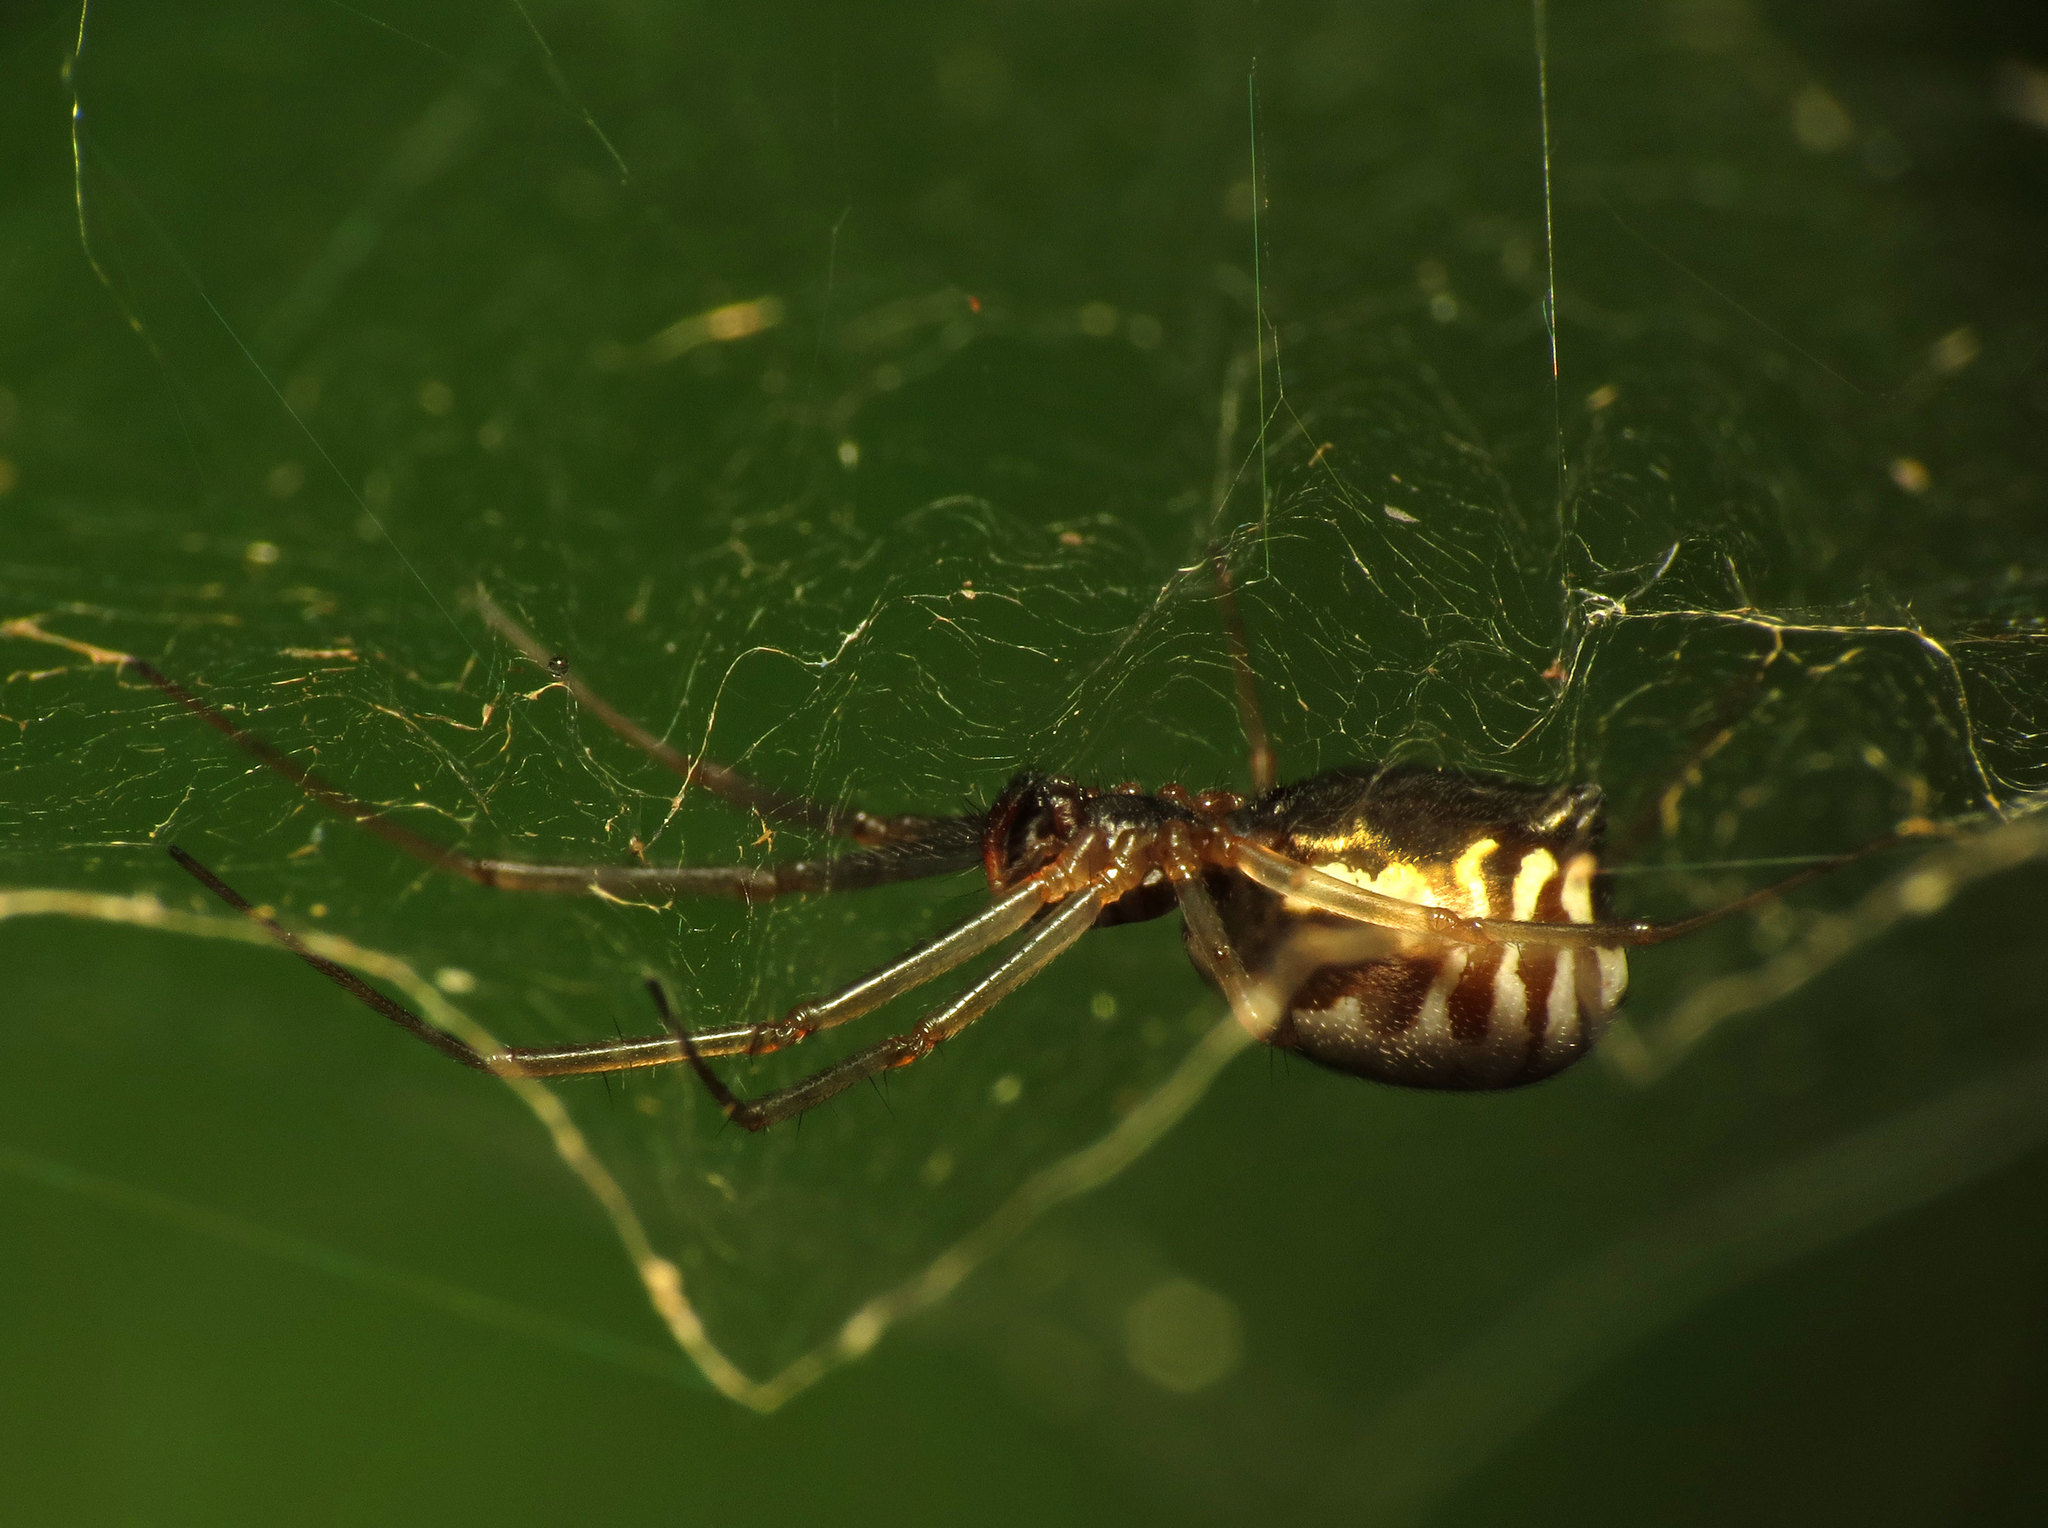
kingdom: Animalia
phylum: Arthropoda
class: Arachnida
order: Araneae
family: Linyphiidae
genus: Frontinella
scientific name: Frontinella pyramitela
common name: Bowl-and-doily spider
